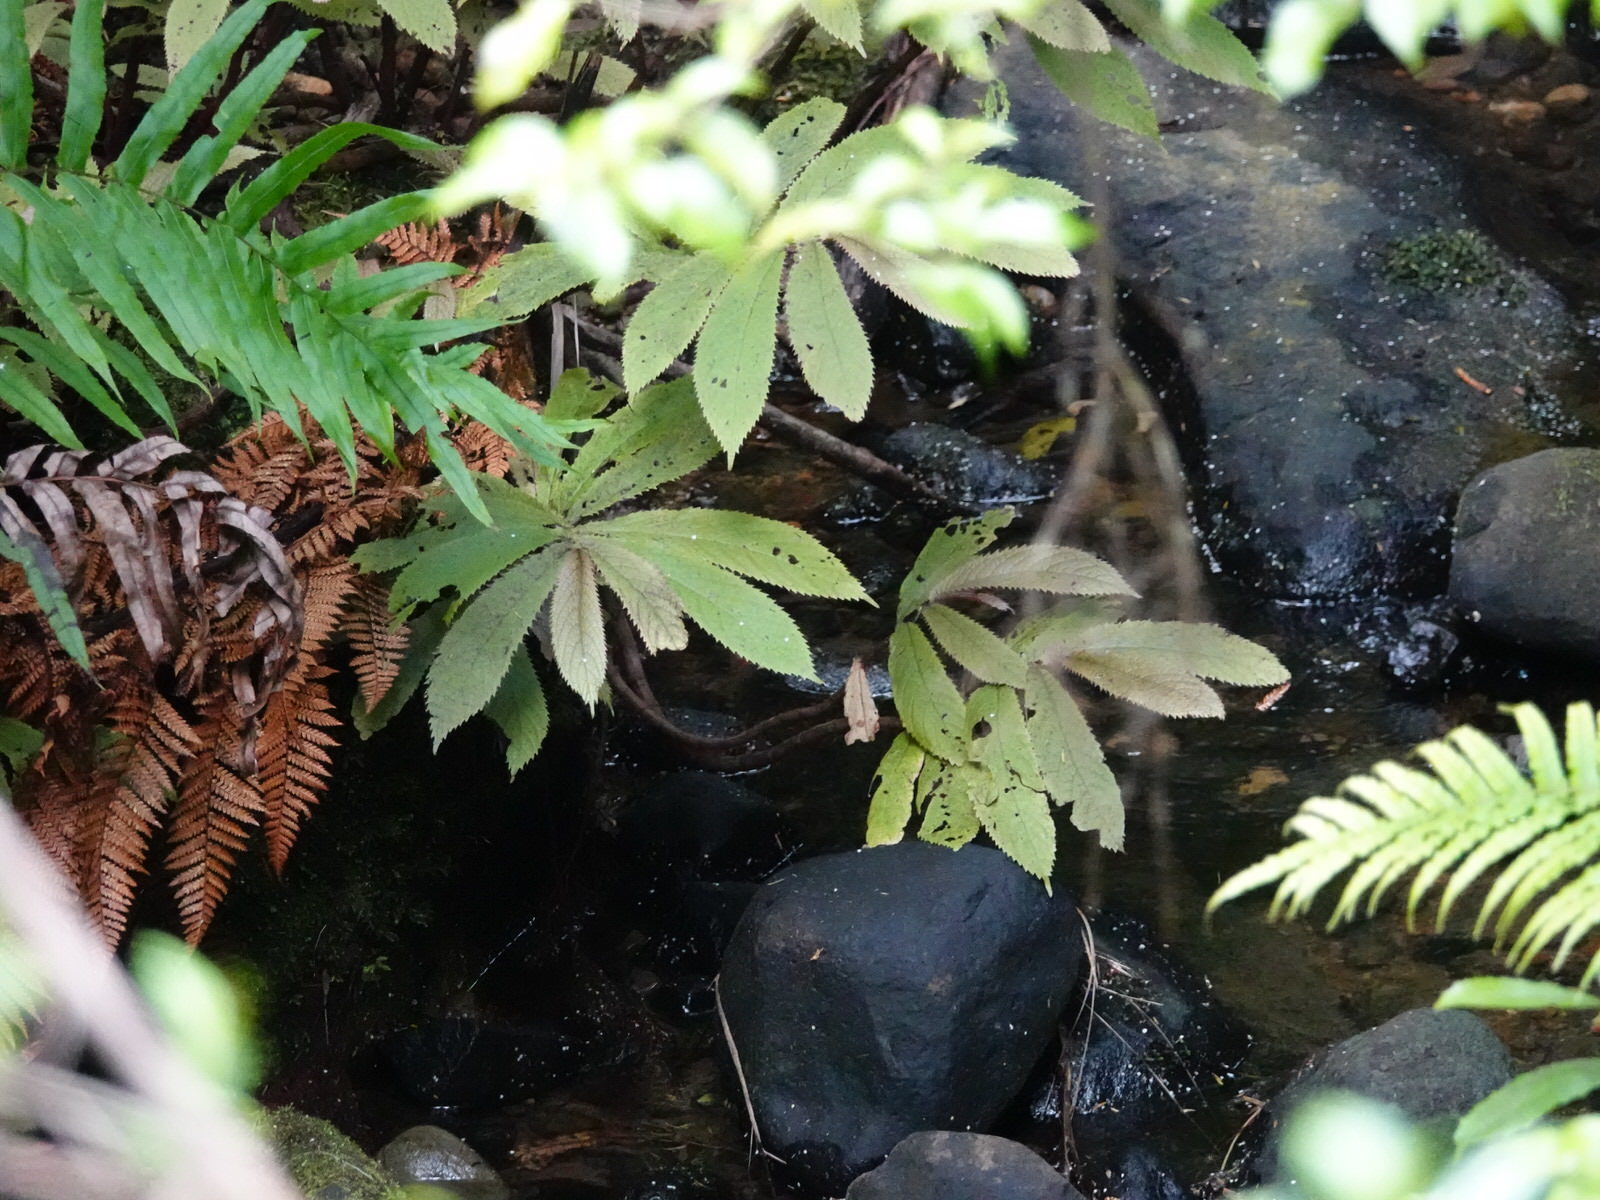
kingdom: Plantae
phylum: Tracheophyta
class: Magnoliopsida
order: Rosales
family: Urticaceae
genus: Elatostema
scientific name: Elatostema rugosum
